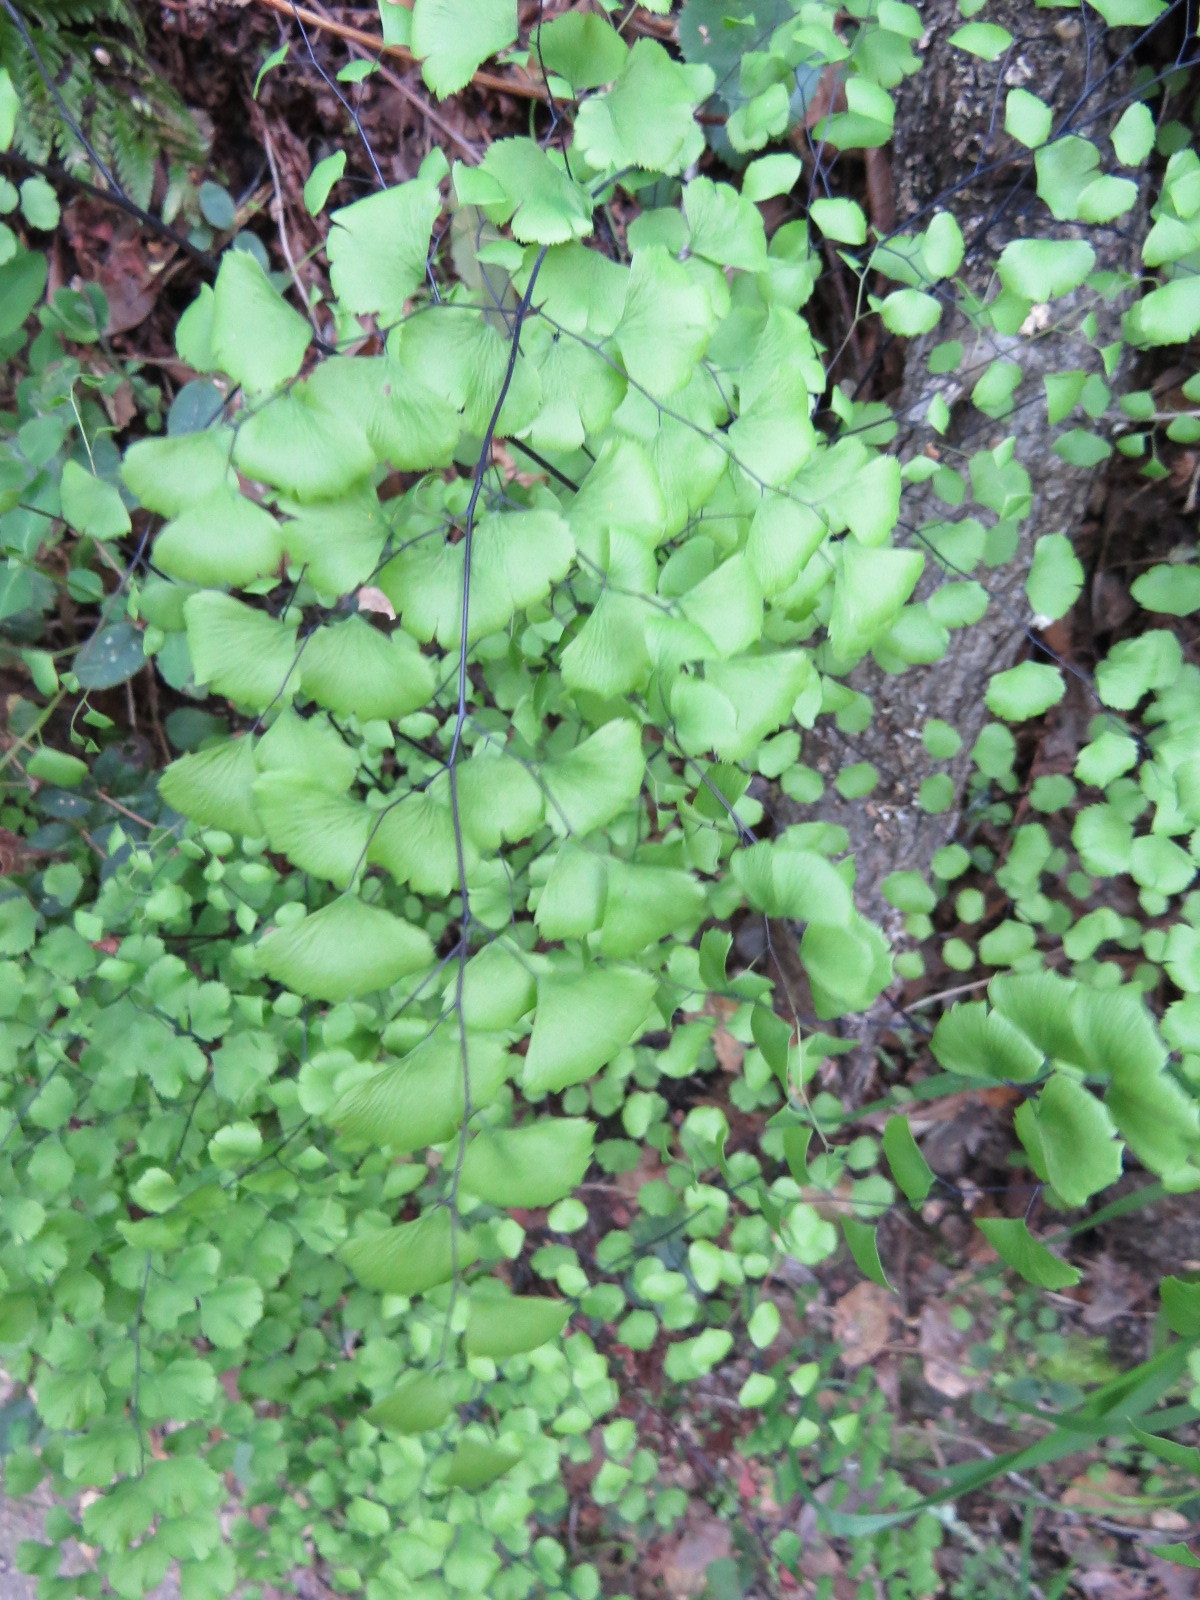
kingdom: Plantae
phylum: Tracheophyta
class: Polypodiopsida
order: Polypodiales
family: Pteridaceae
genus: Adiantum
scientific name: Adiantum jordanii
